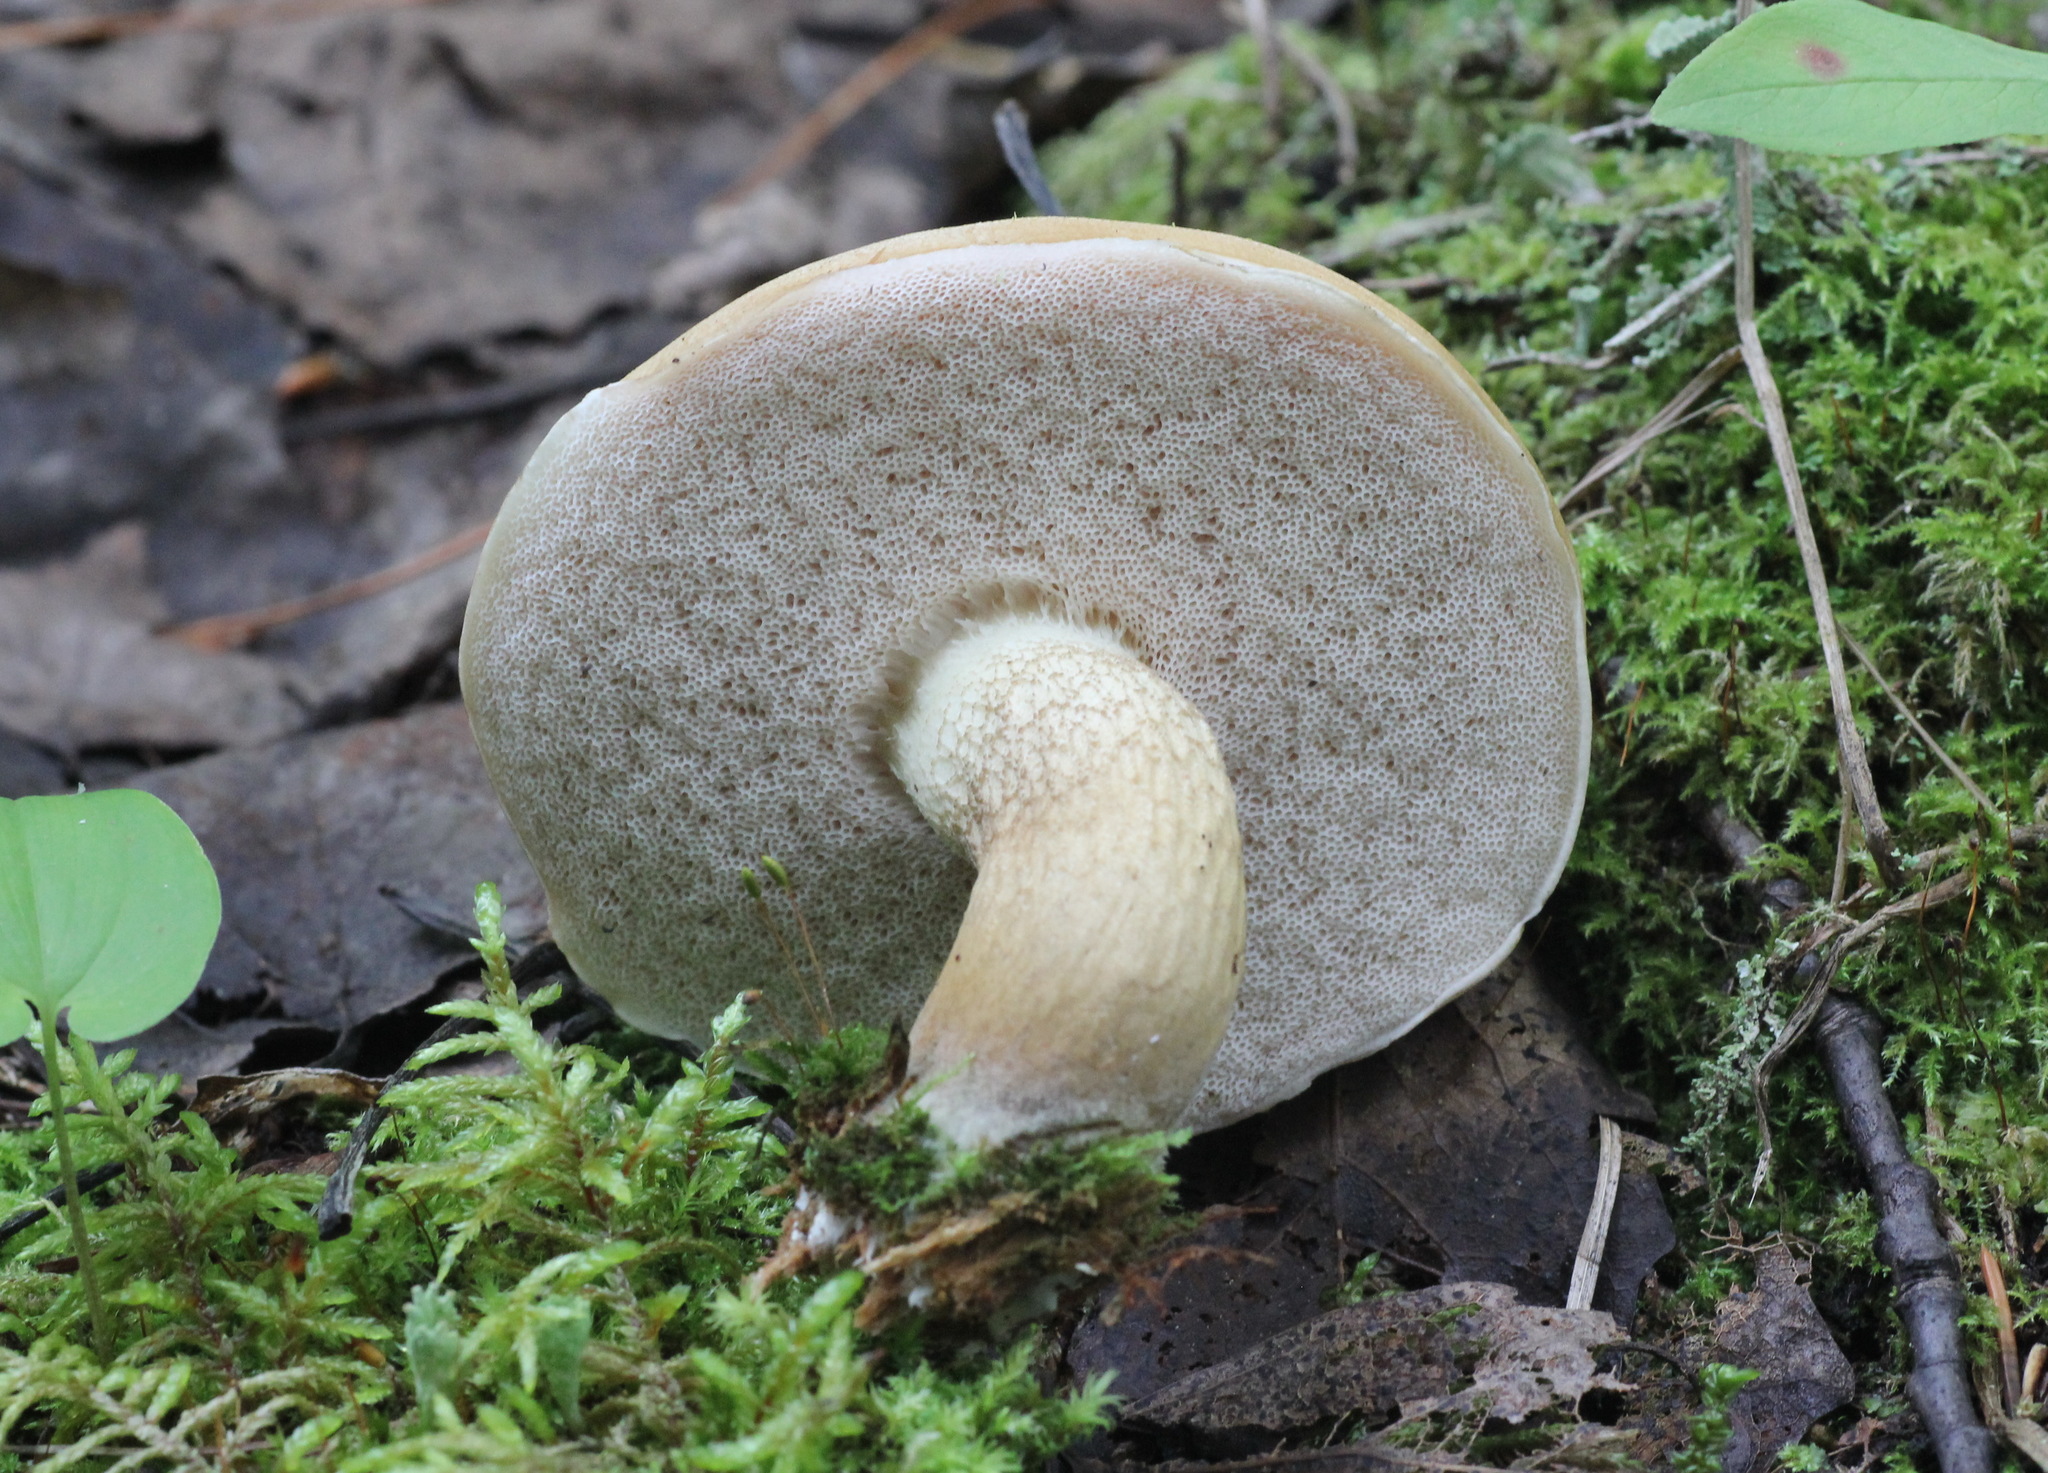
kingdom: Fungi
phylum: Basidiomycota
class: Agaricomycetes
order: Boletales
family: Boletaceae
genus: Tylopilus
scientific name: Tylopilus felleus
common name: Bitter bolete
